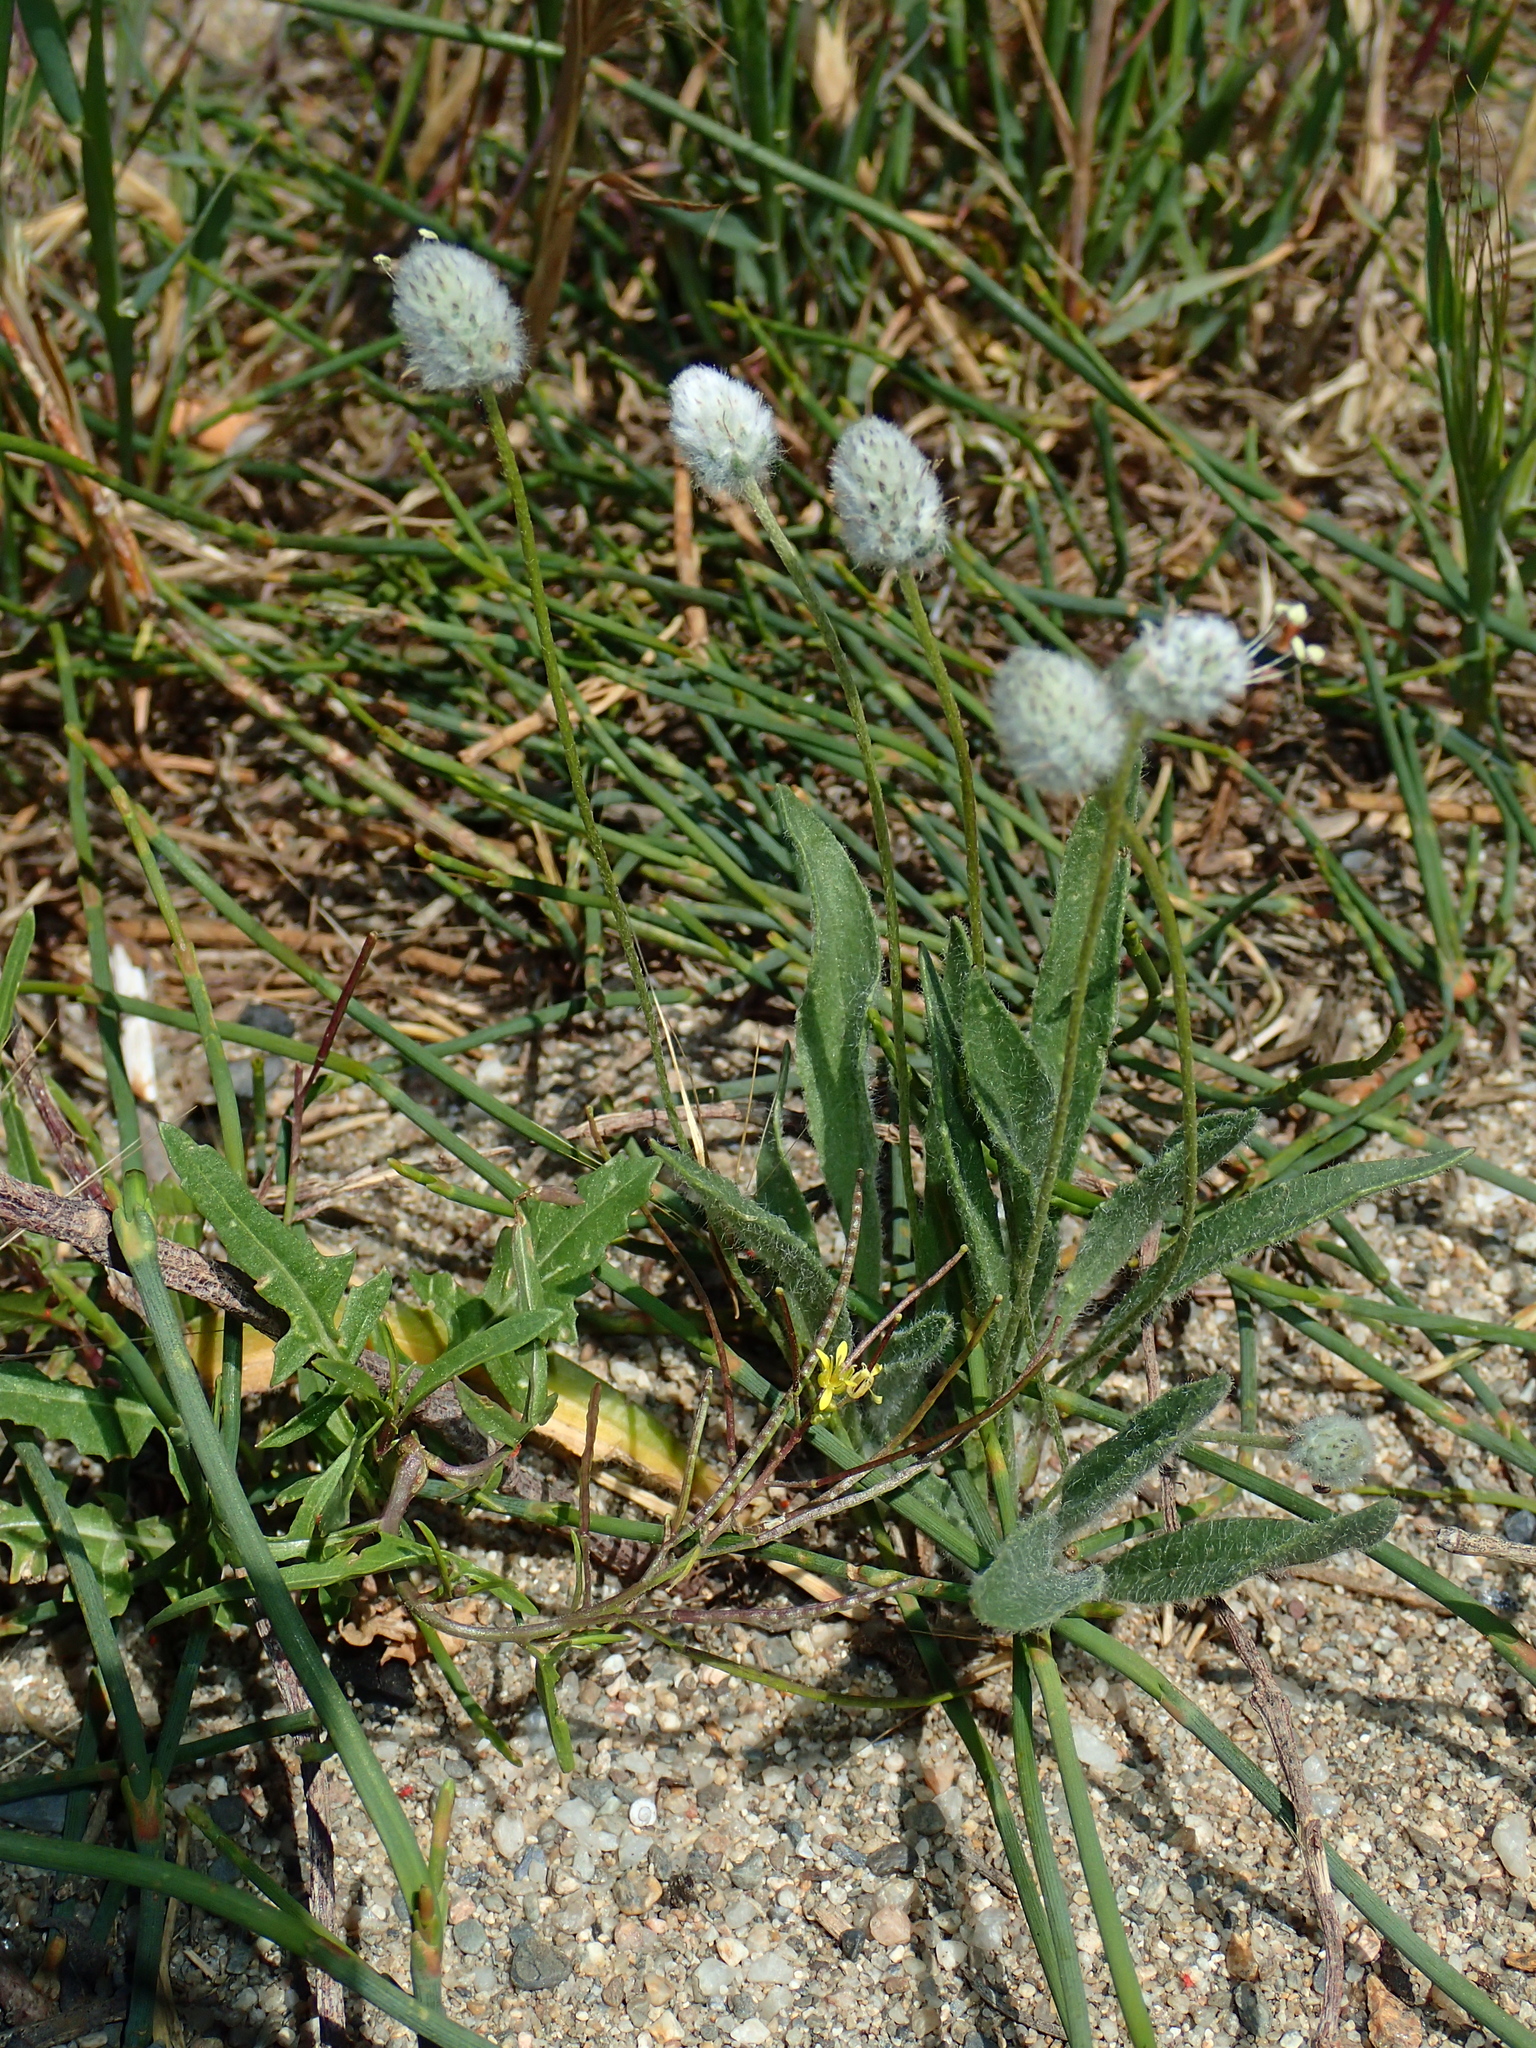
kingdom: Plantae
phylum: Tracheophyta
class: Magnoliopsida
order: Lamiales
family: Plantaginaceae
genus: Plantago
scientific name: Plantago lagopus
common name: Hare-foot plantain
